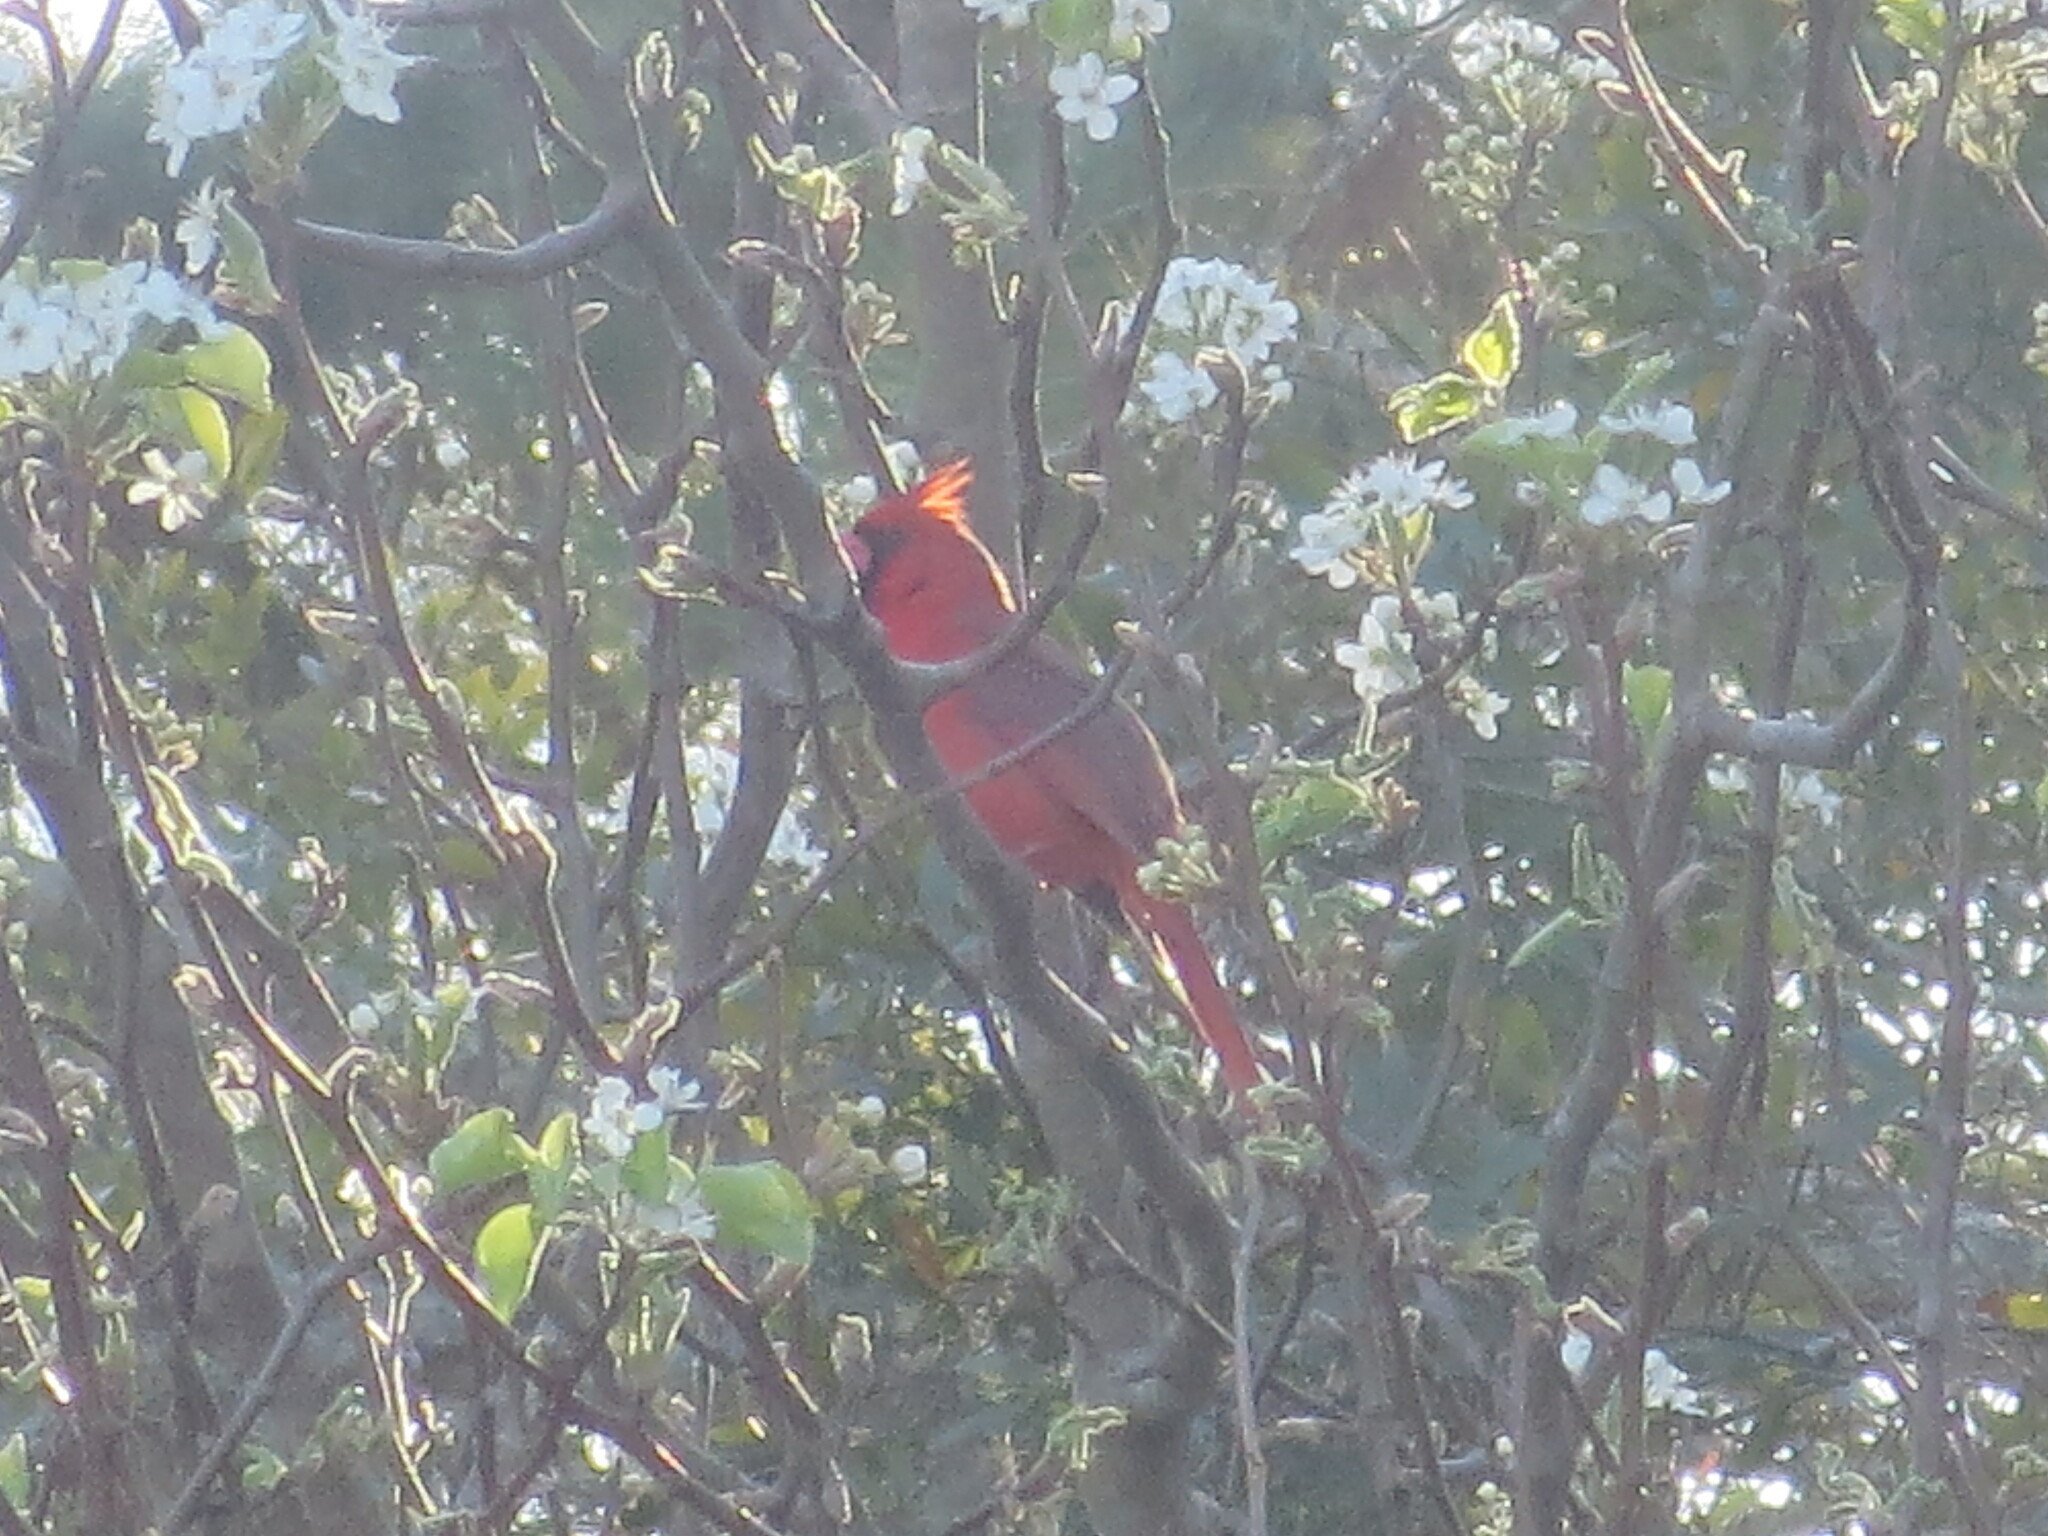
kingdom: Animalia
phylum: Chordata
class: Aves
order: Passeriformes
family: Cardinalidae
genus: Cardinalis
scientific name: Cardinalis cardinalis
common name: Northern cardinal
